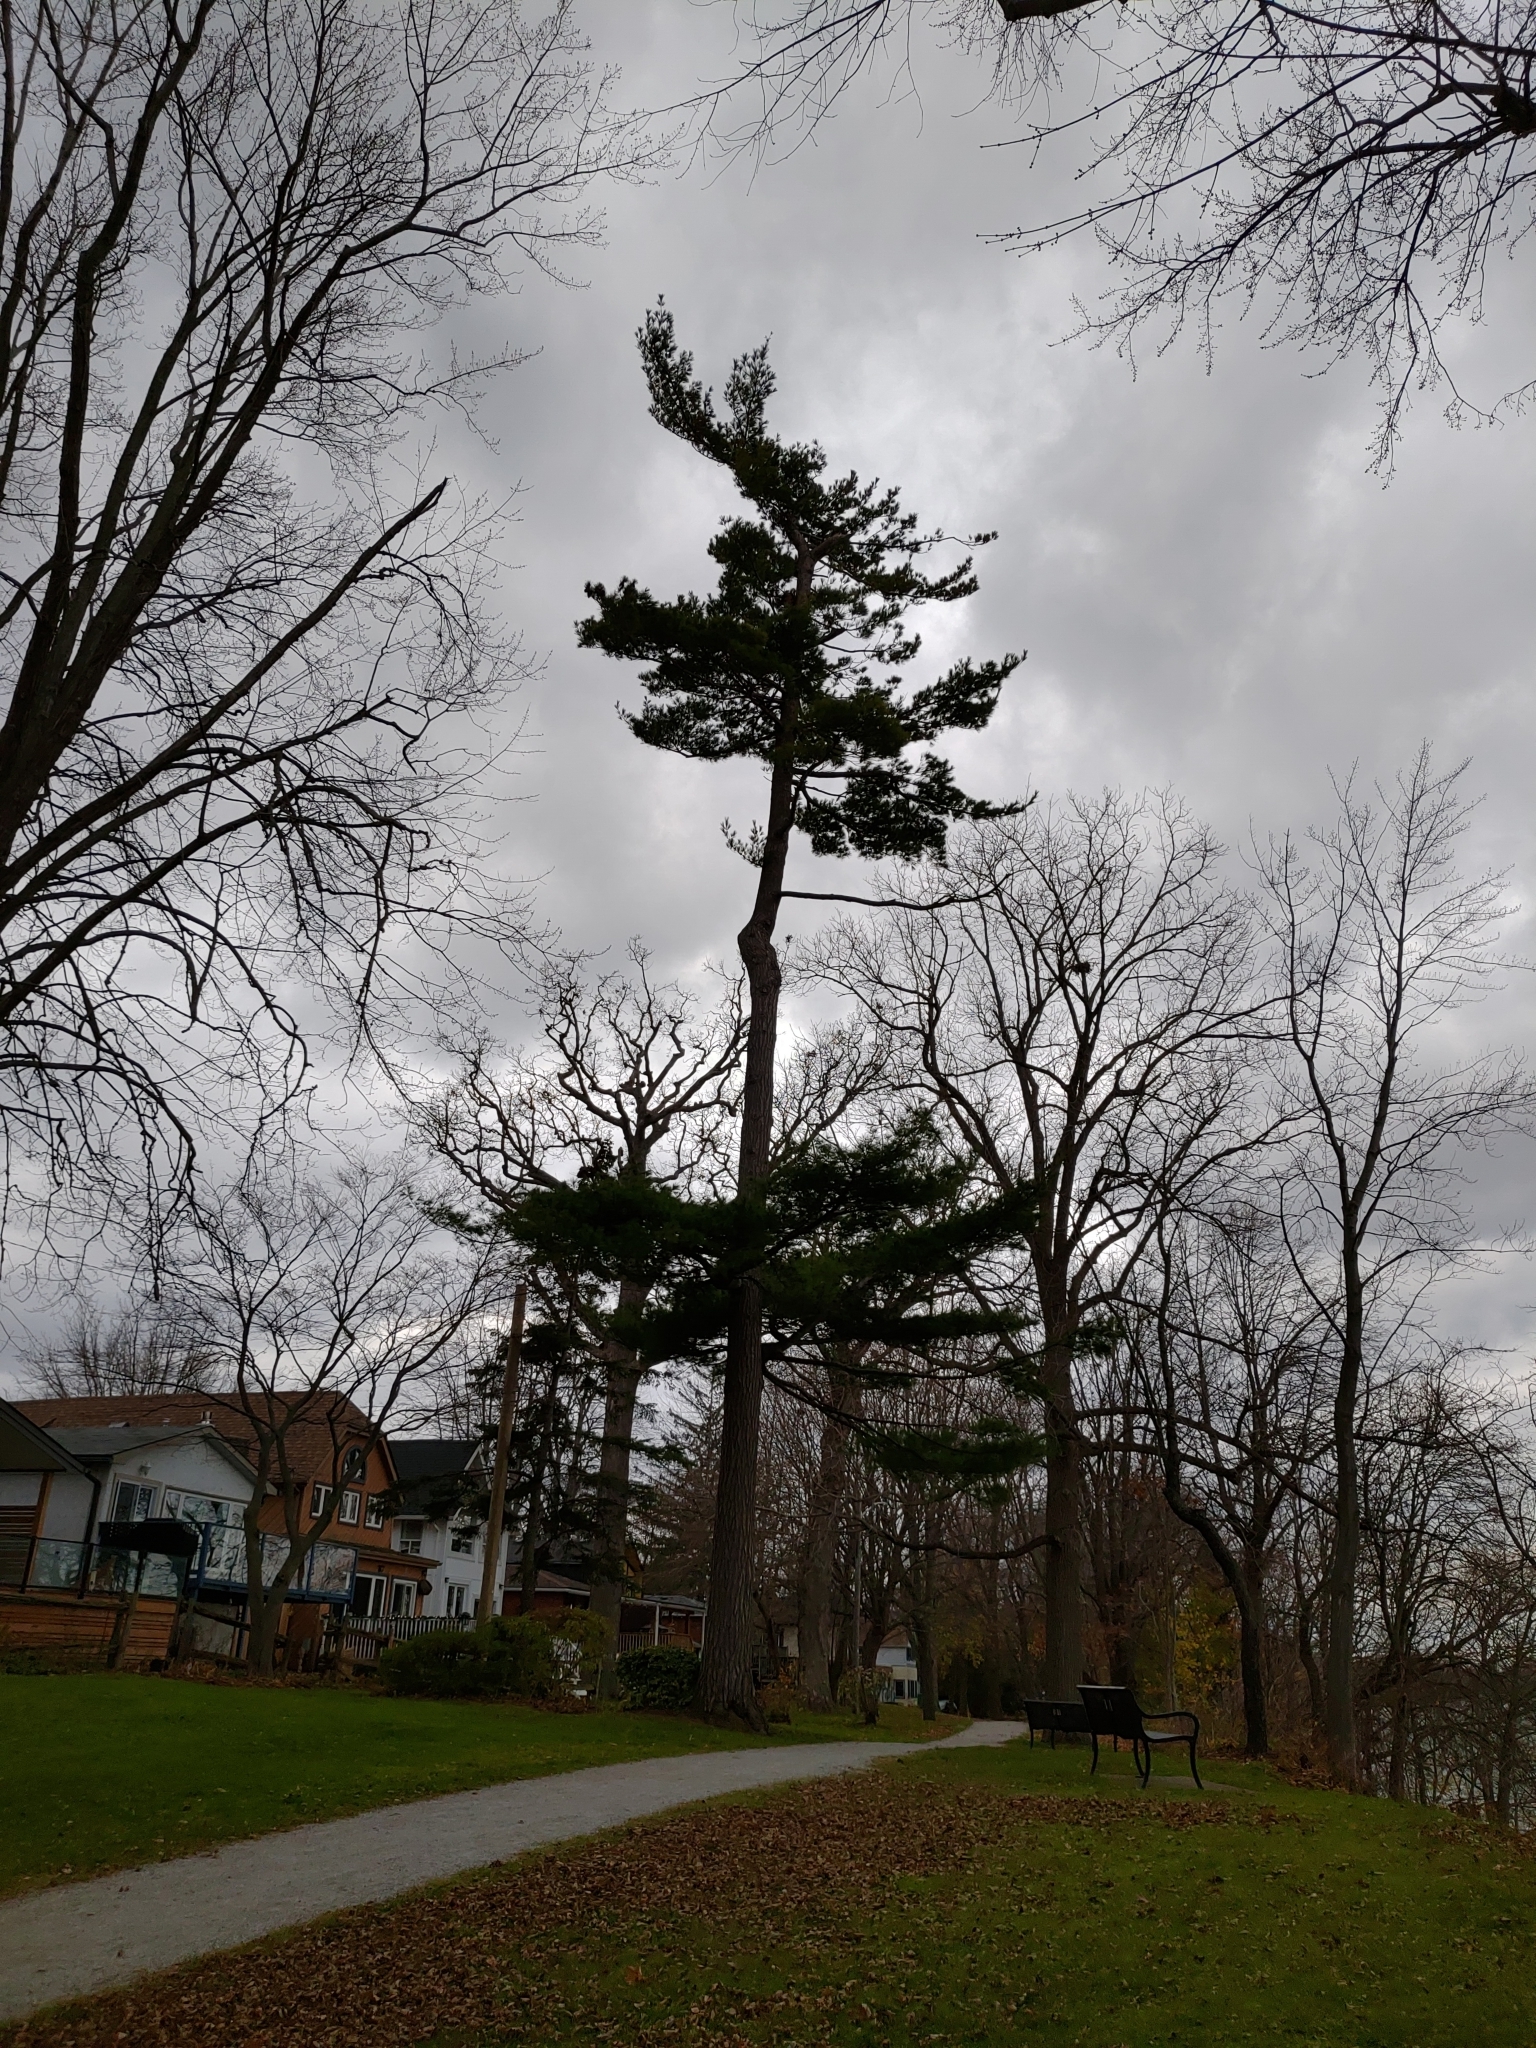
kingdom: Plantae
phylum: Tracheophyta
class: Pinopsida
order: Pinales
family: Pinaceae
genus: Pinus
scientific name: Pinus strobus
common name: Weymouth pine
